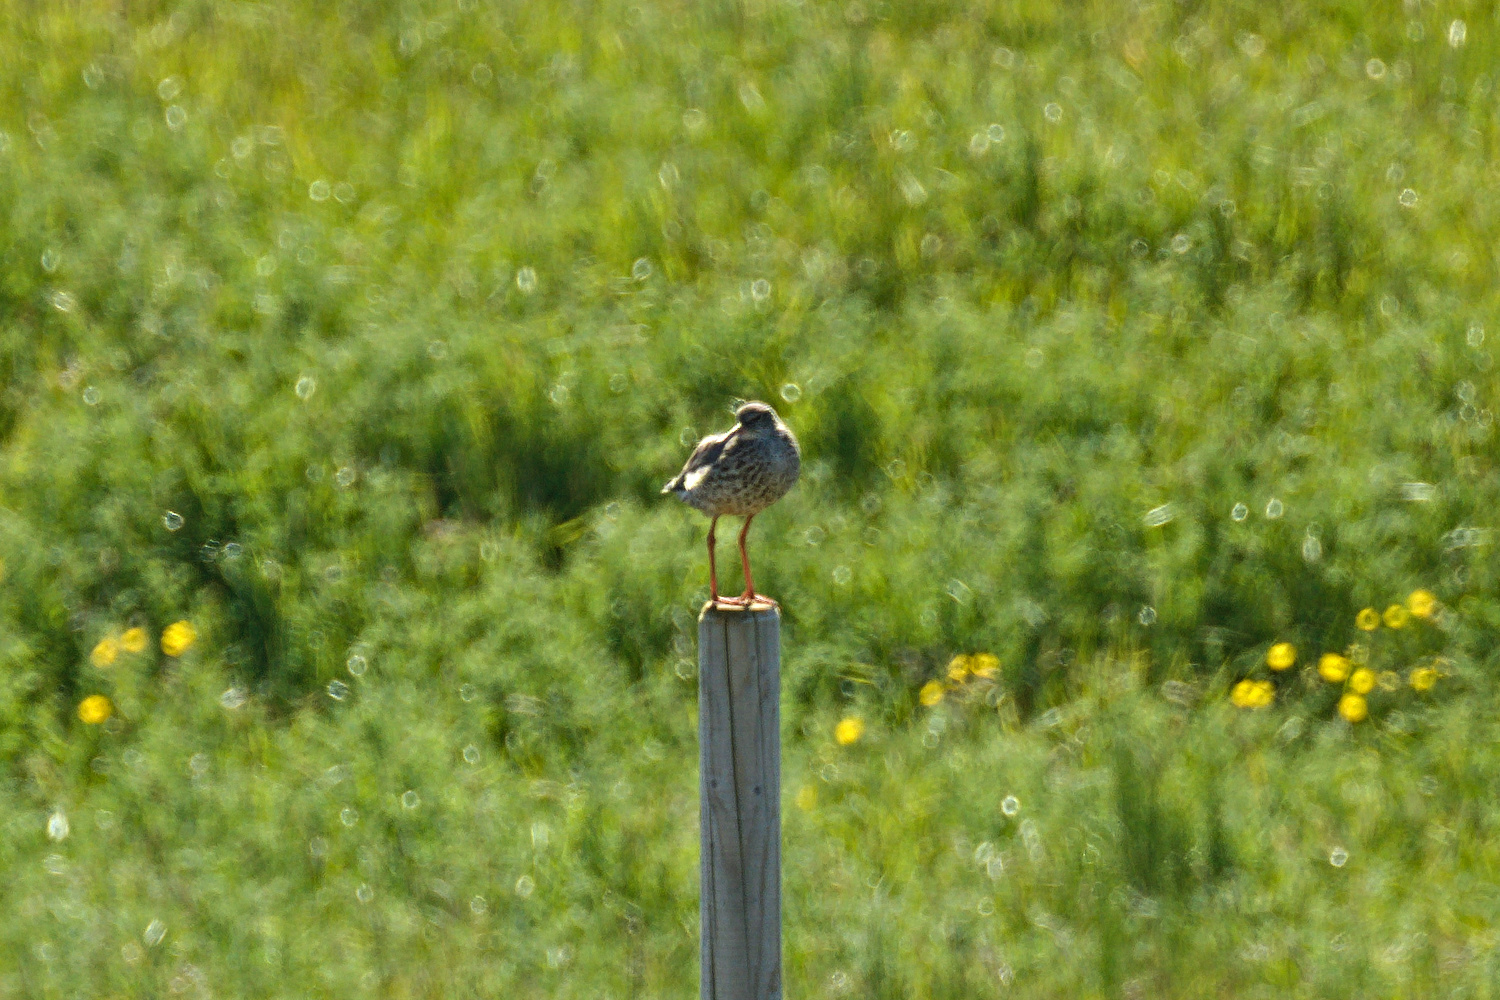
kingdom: Animalia
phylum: Chordata
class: Aves
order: Charadriiformes
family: Scolopacidae
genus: Tringa
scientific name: Tringa totanus
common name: Common redshank
